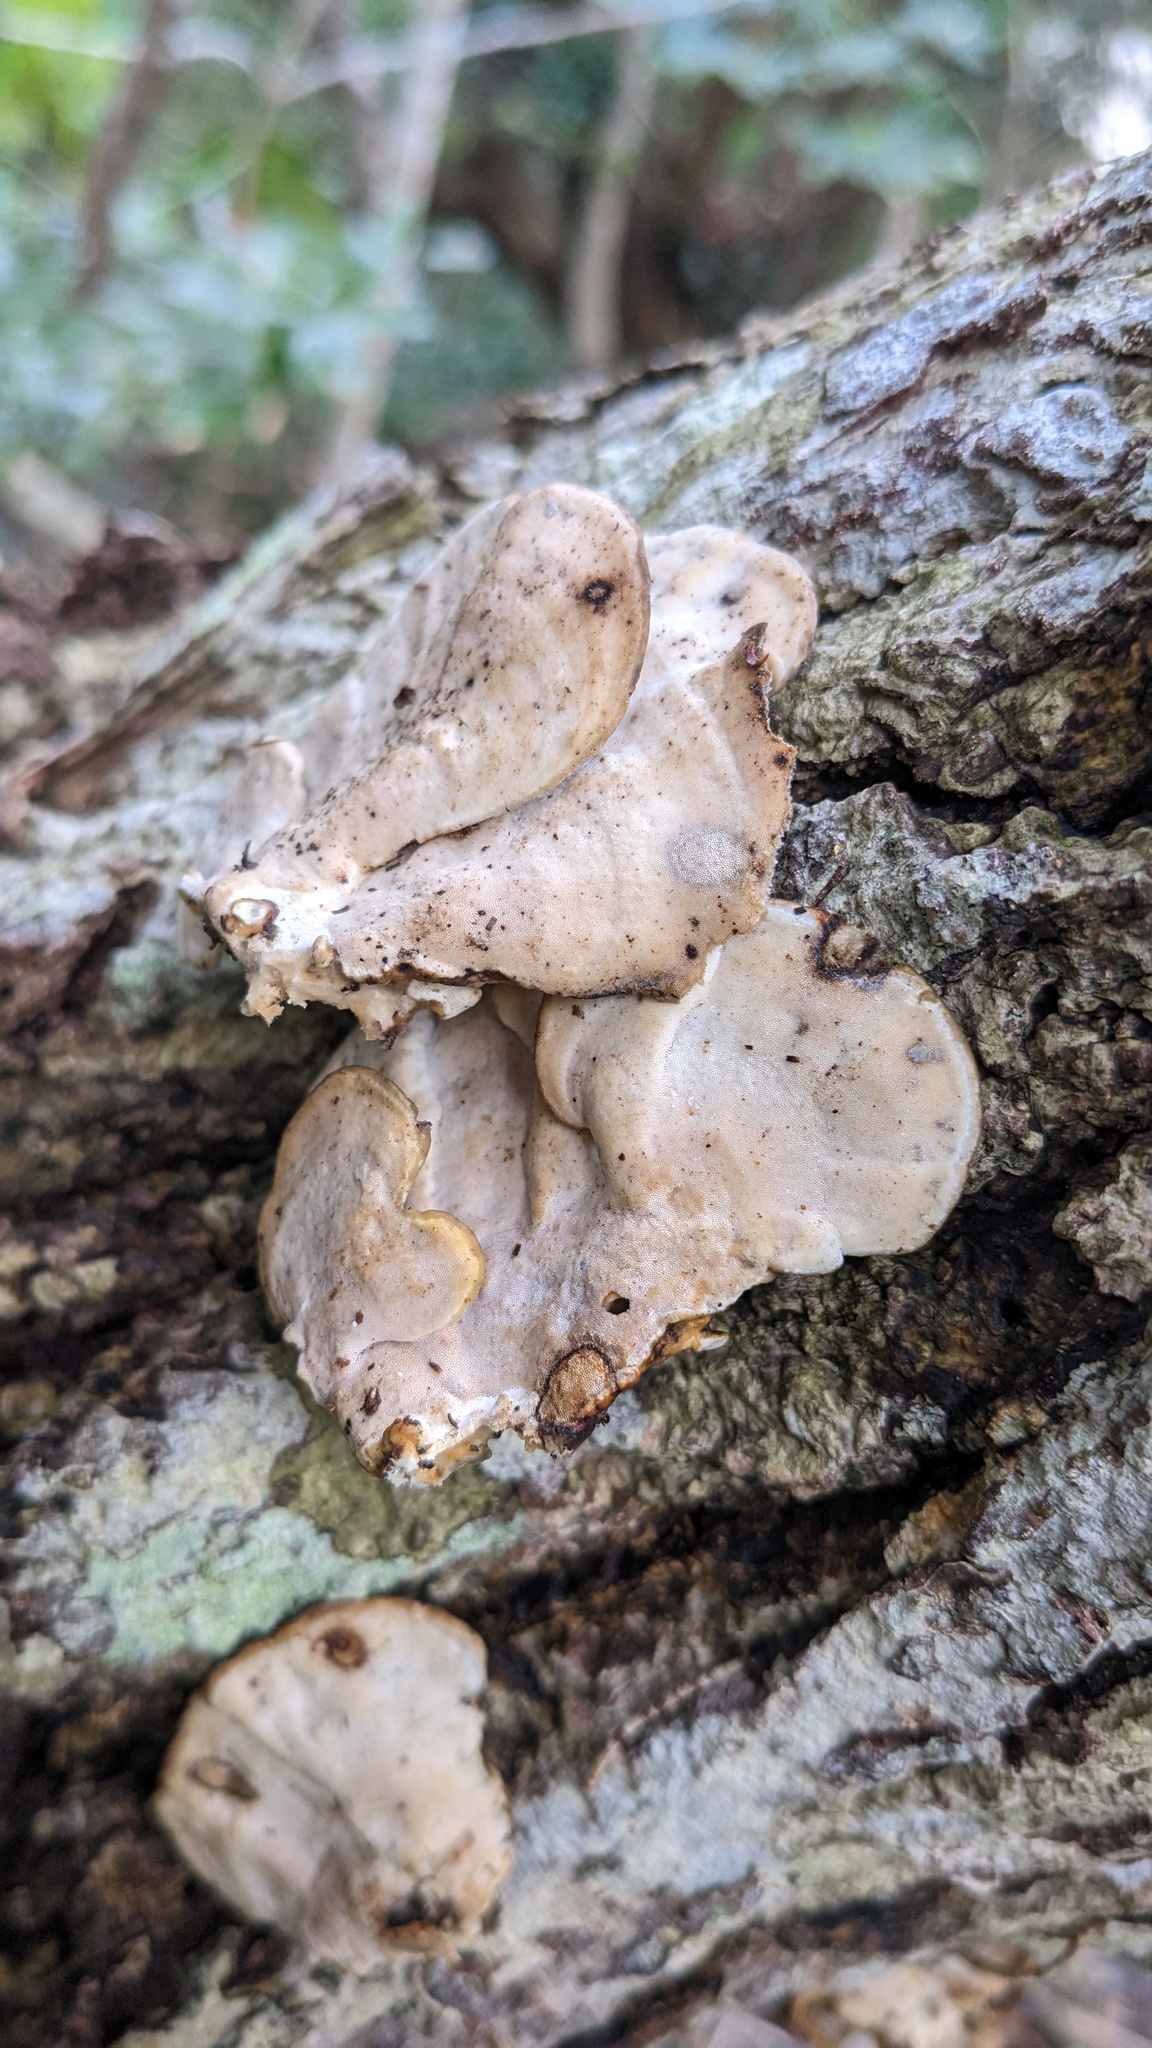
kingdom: Fungi
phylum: Basidiomycota
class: Agaricomycetes
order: Polyporales
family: Polyporaceae
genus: Microporus
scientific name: Microporus affinis
